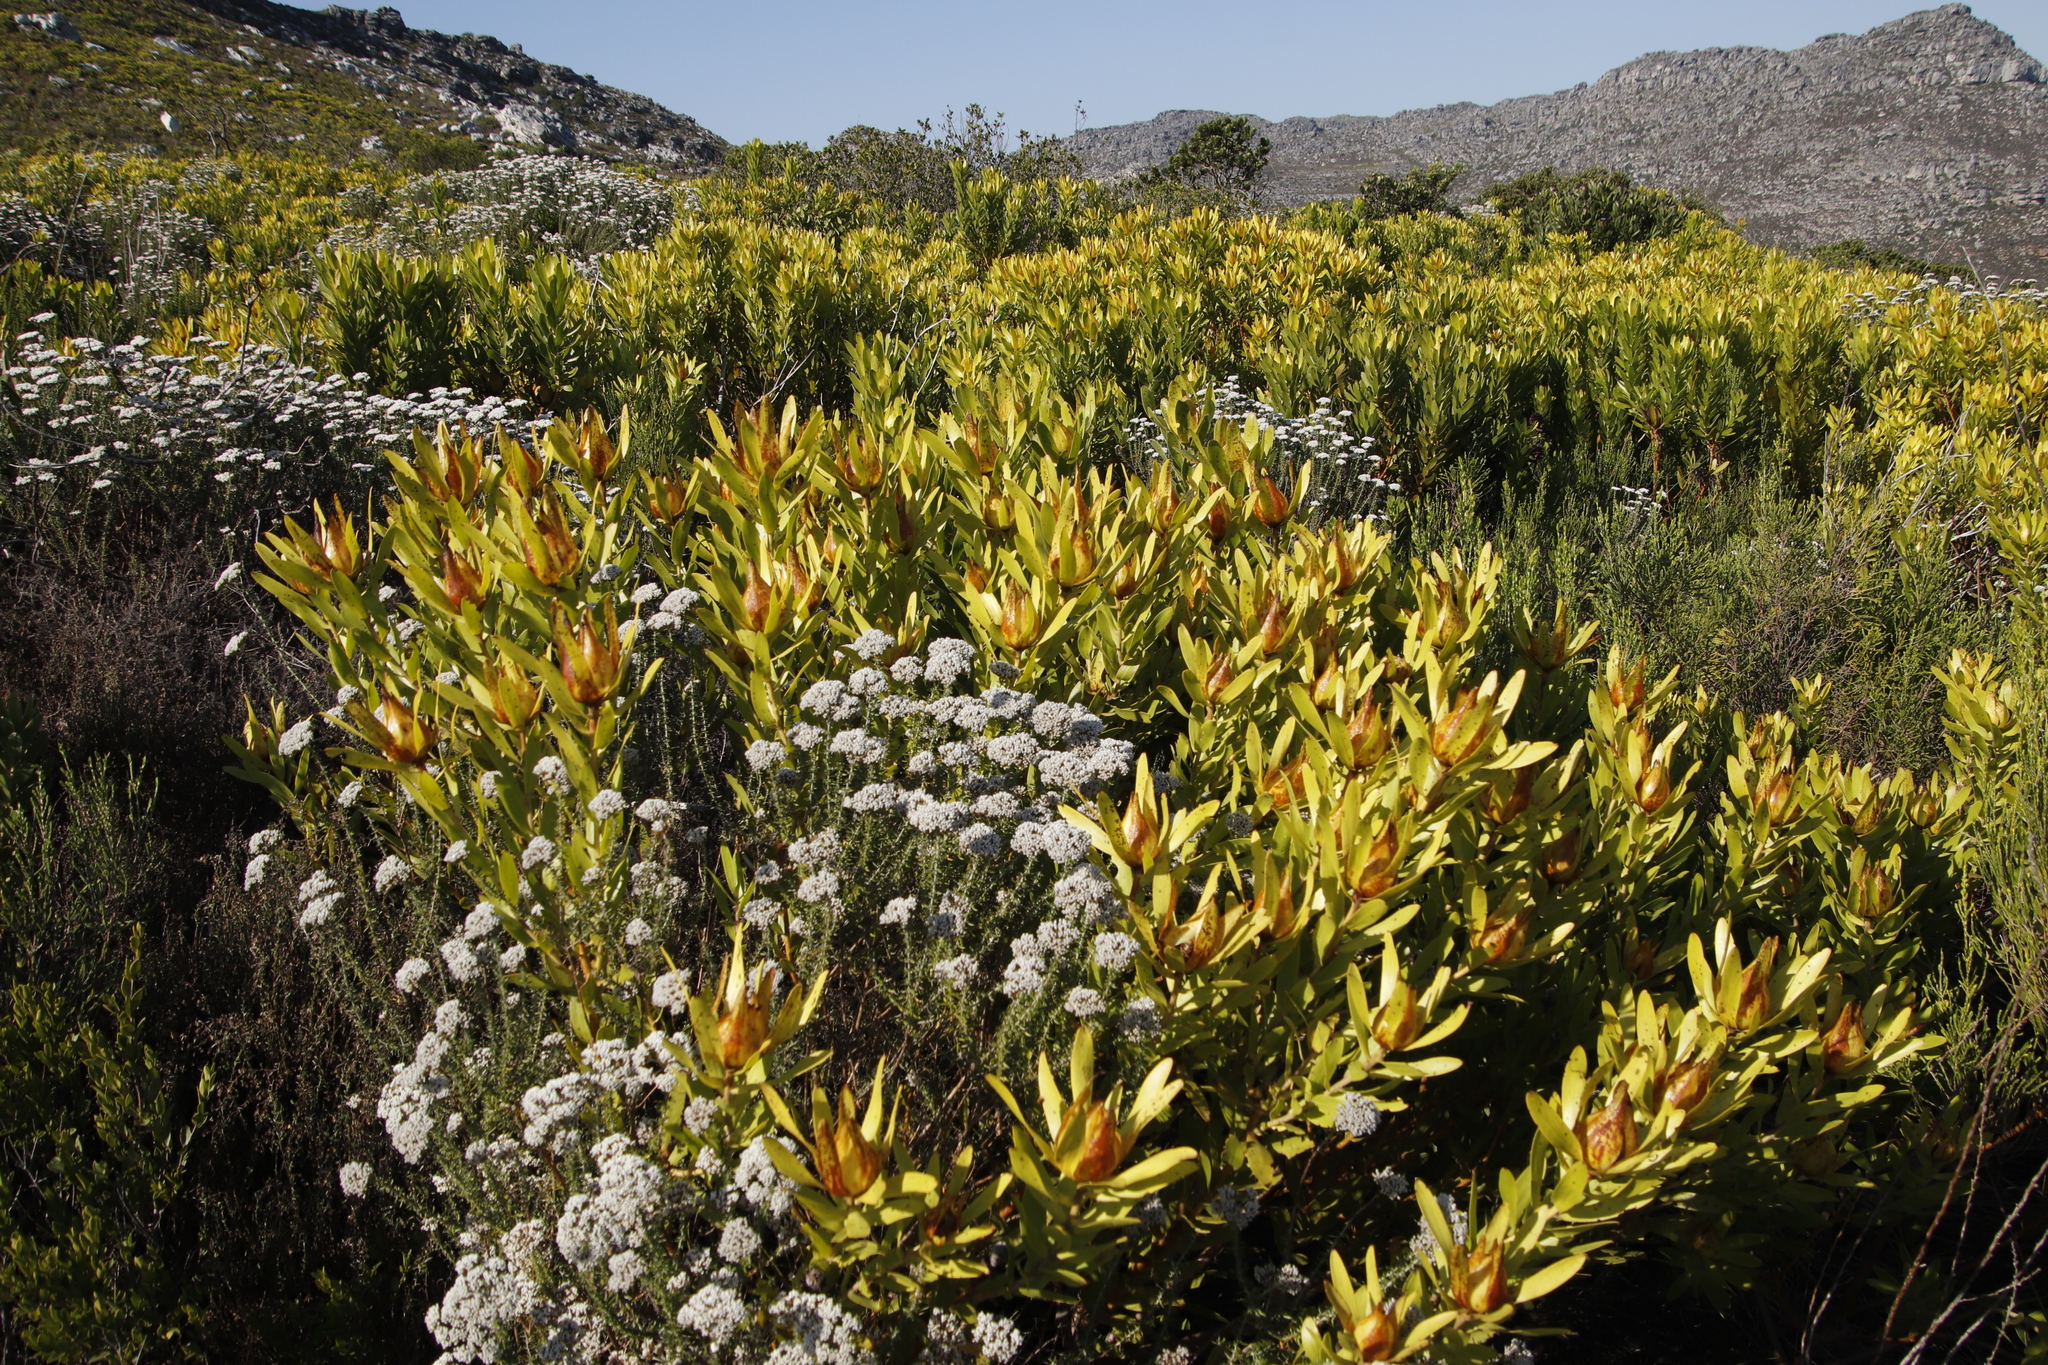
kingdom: Plantae
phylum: Tracheophyta
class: Magnoliopsida
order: Proteales
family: Proteaceae
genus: Leucadendron
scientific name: Leucadendron laureolum
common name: Golden sunshinebush
